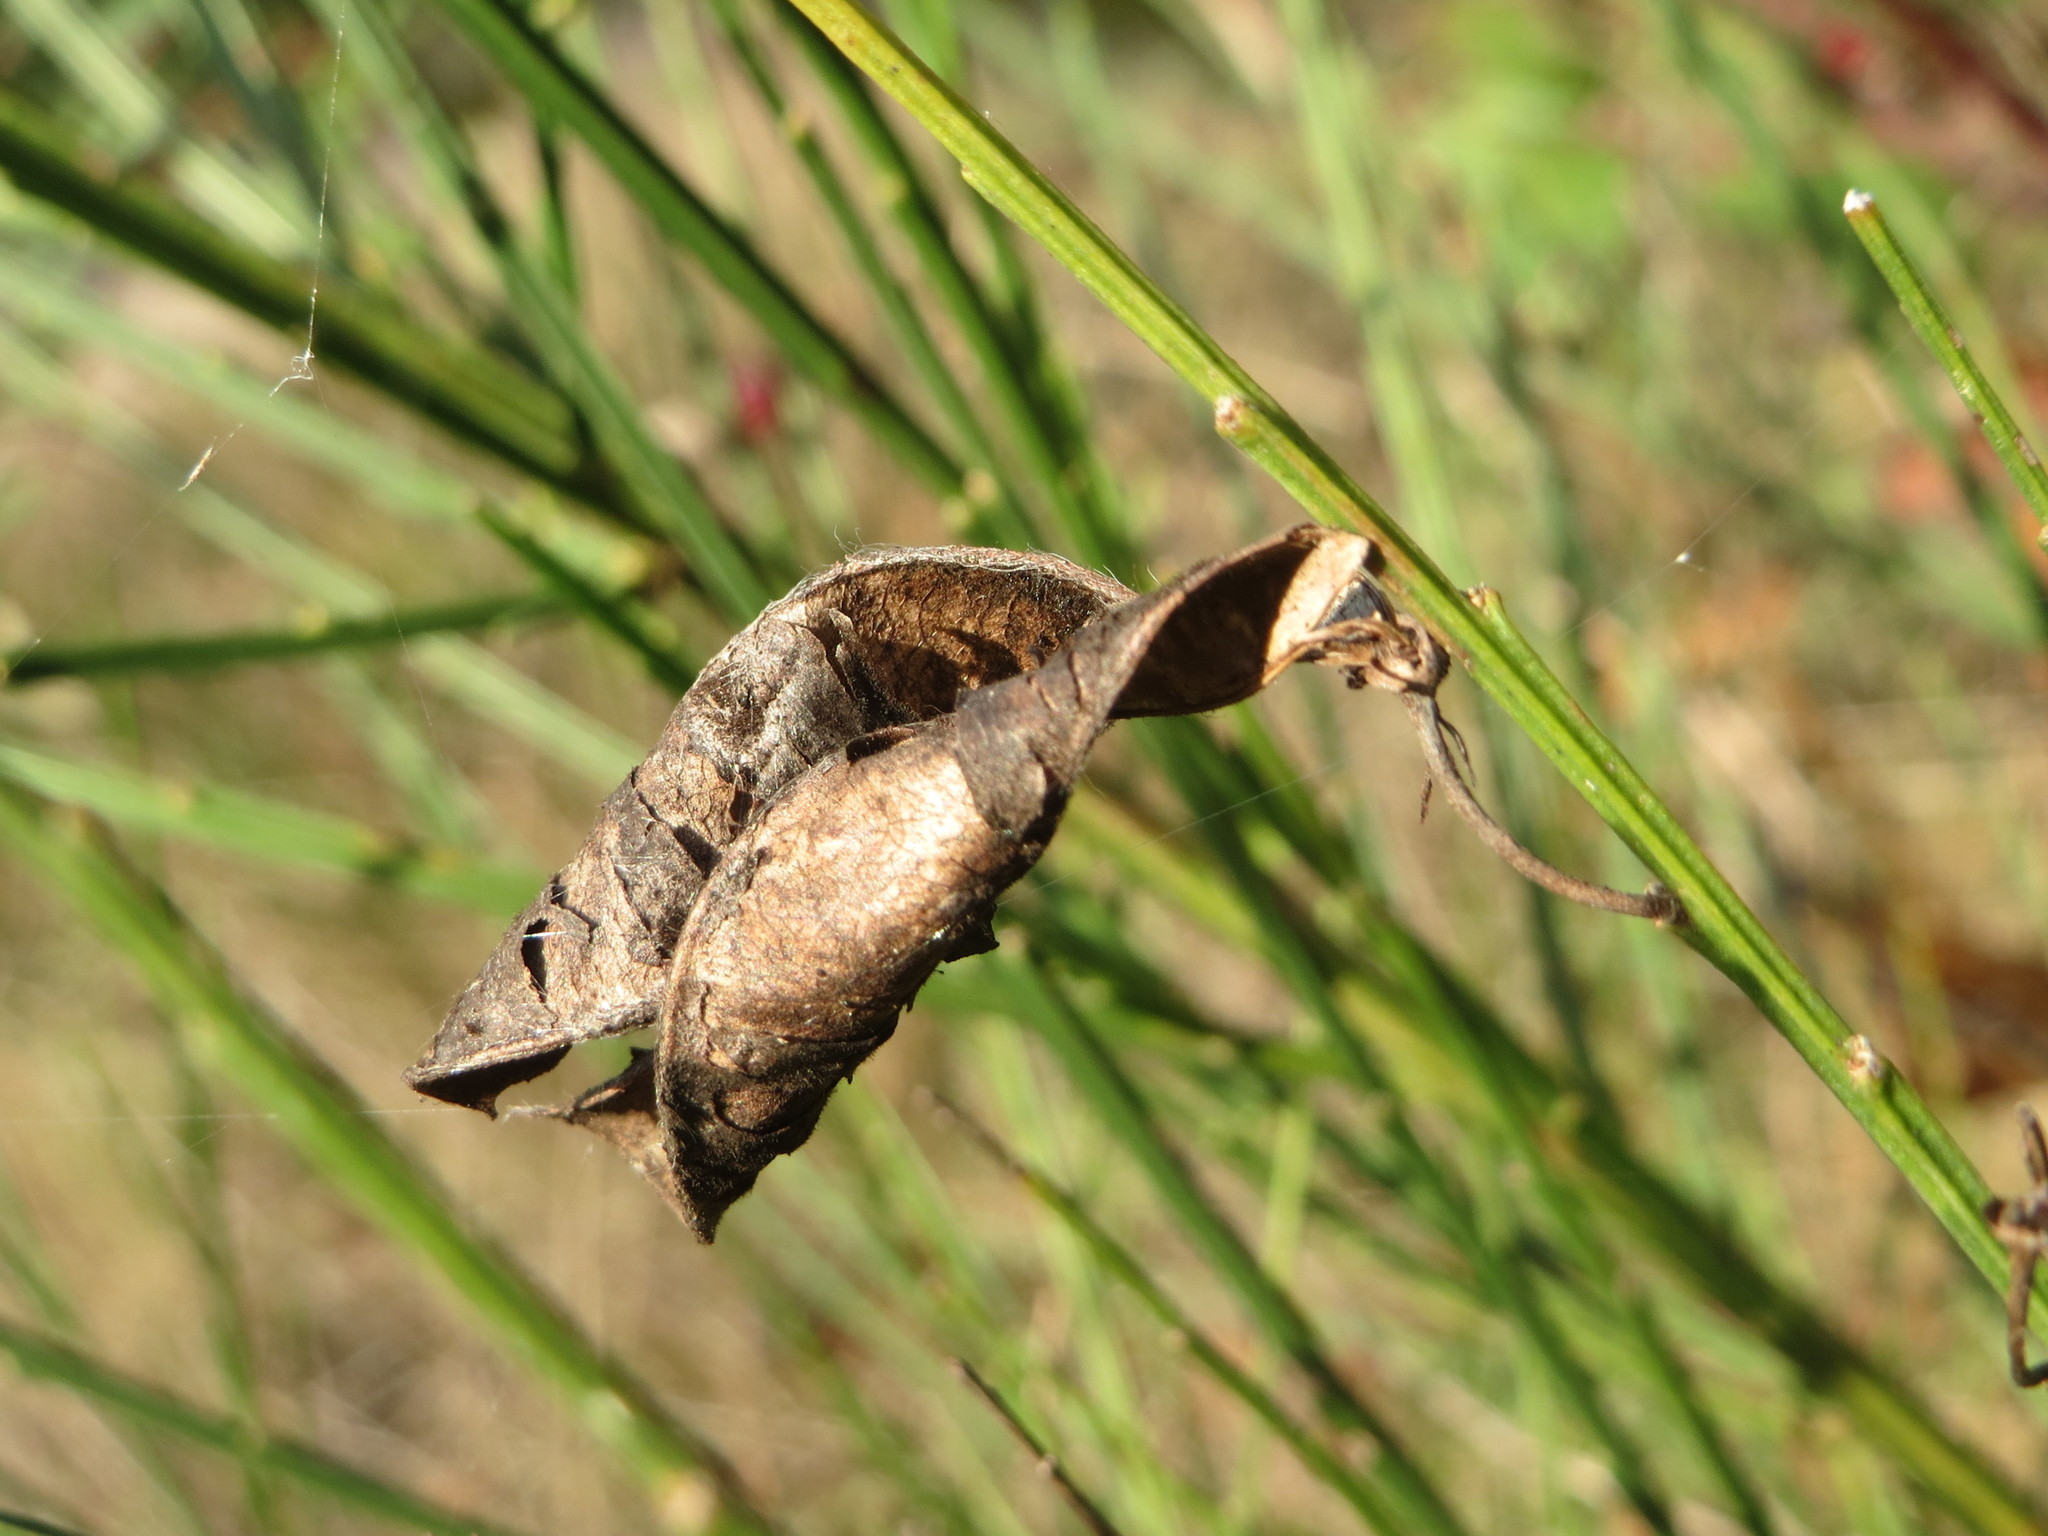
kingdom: Plantae
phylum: Tracheophyta
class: Magnoliopsida
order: Fabales
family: Fabaceae
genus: Cytisus
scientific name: Cytisus scoparius
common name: Scotch broom
